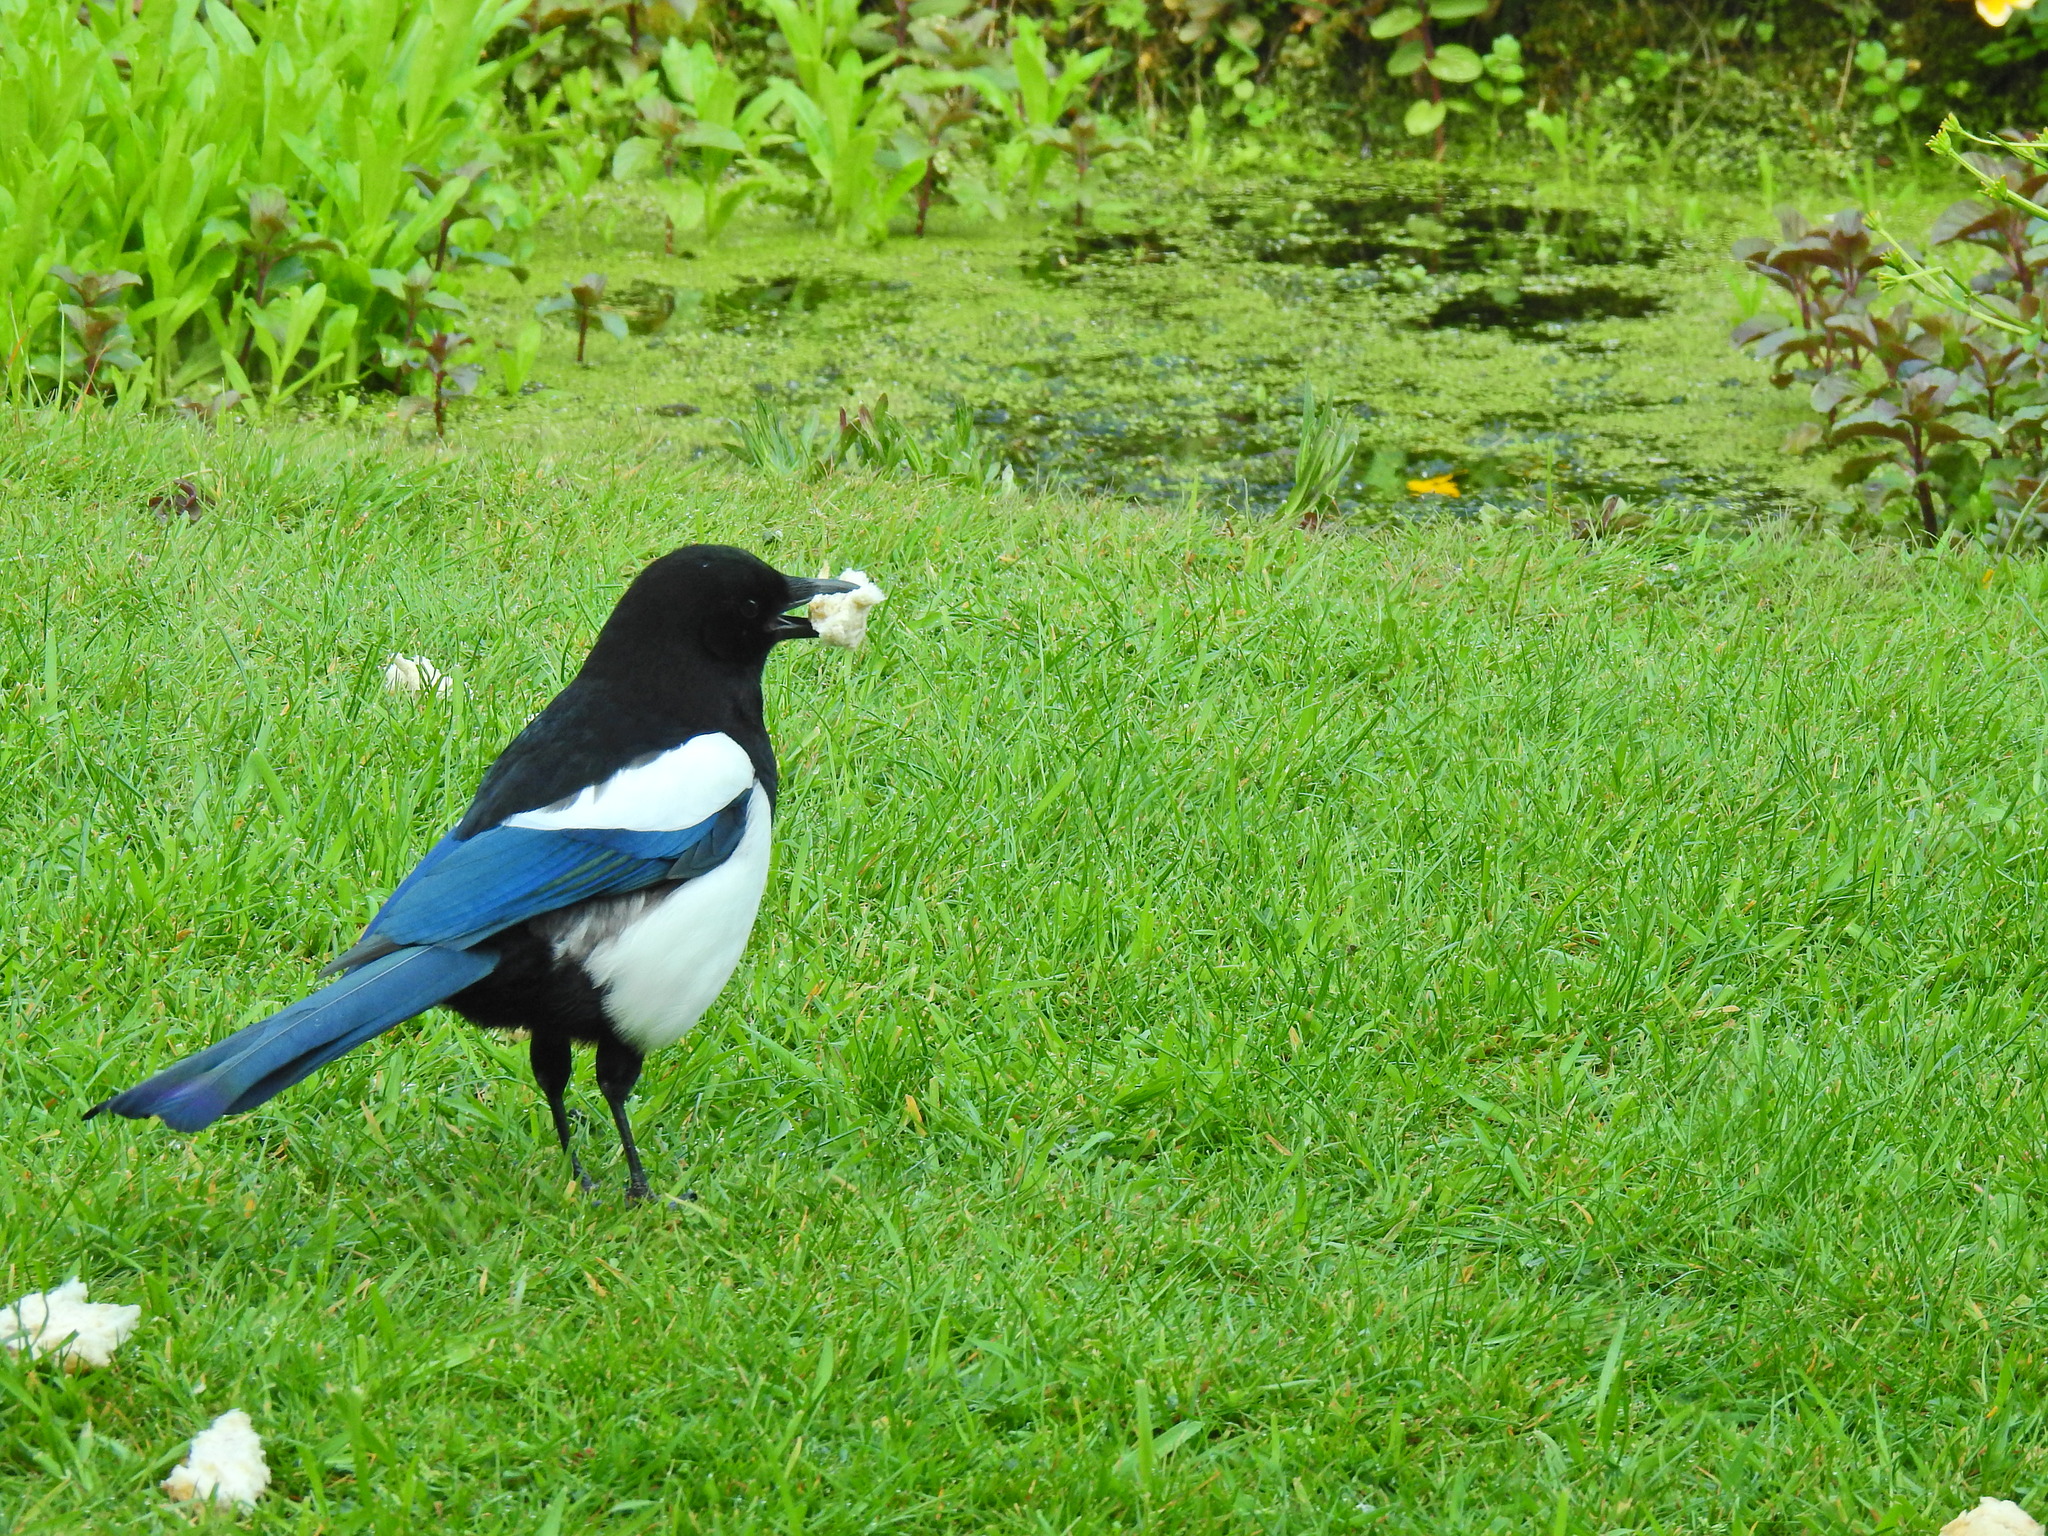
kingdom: Animalia
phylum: Chordata
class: Aves
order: Passeriformes
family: Corvidae
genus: Pica
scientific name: Pica pica
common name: Eurasian magpie
